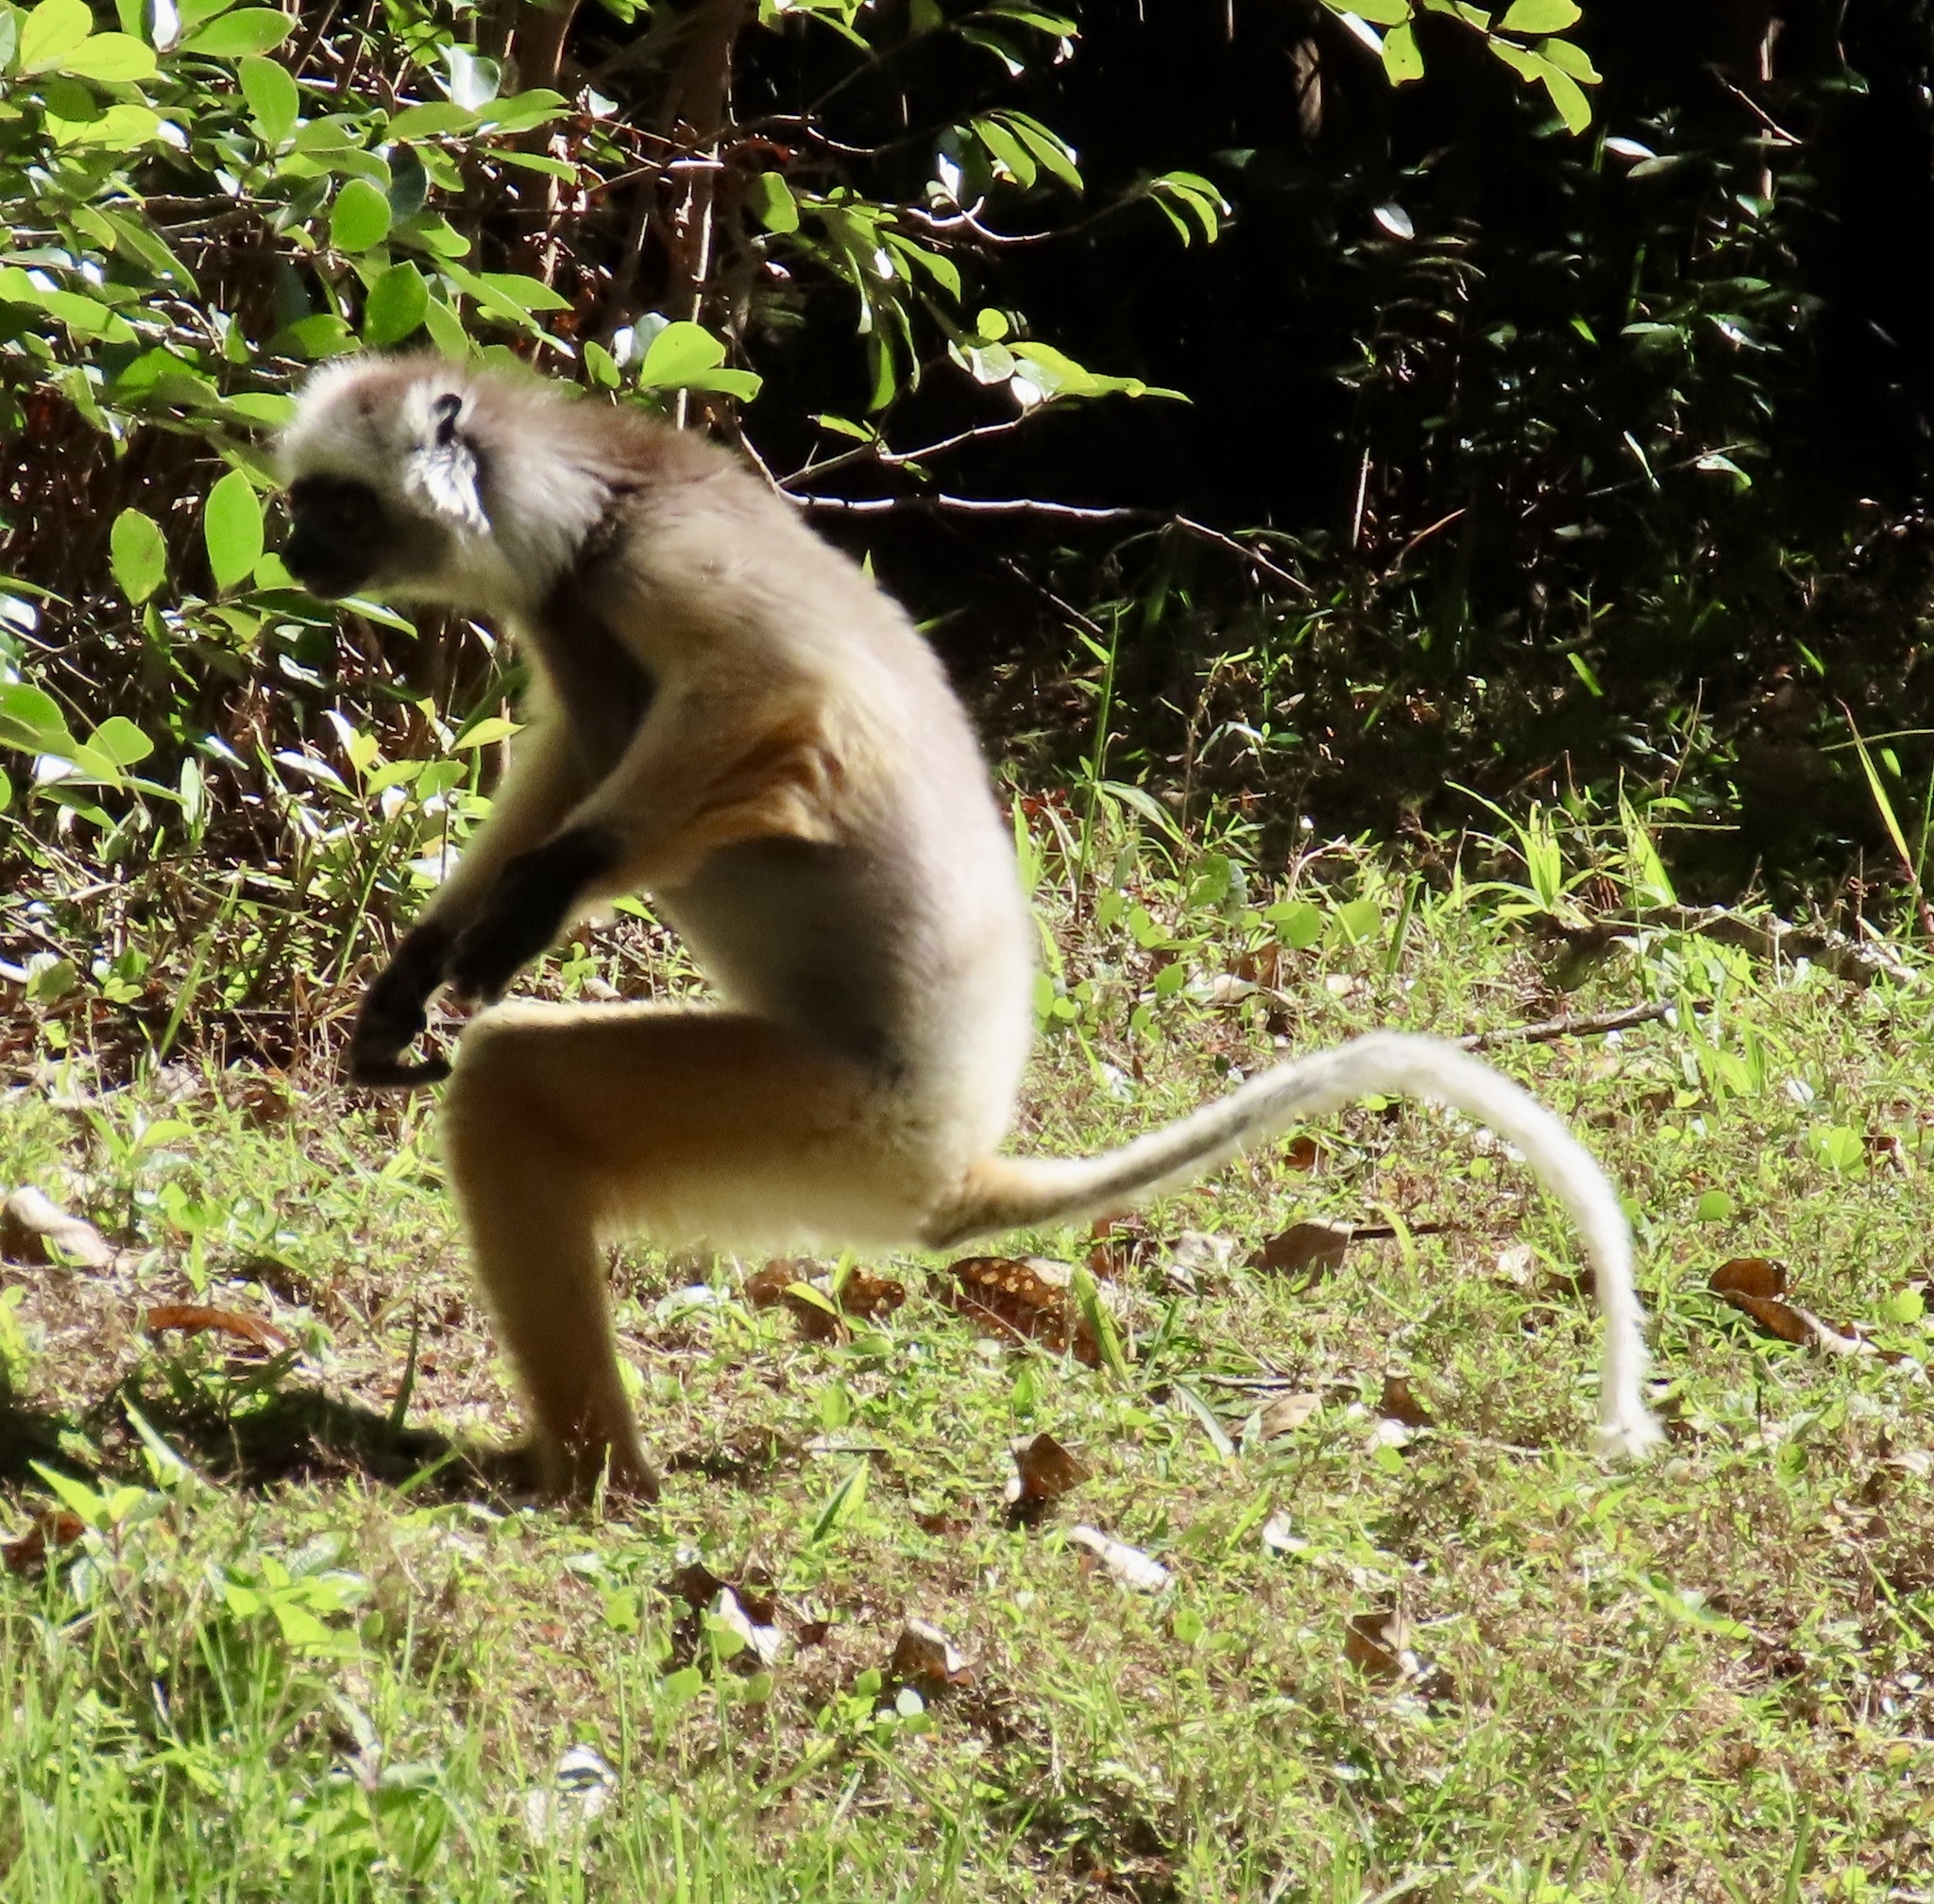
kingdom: Animalia
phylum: Chordata
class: Mammalia
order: Primates
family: Indriidae
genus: Propithecus
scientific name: Propithecus diadema
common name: Diademed sifaka
